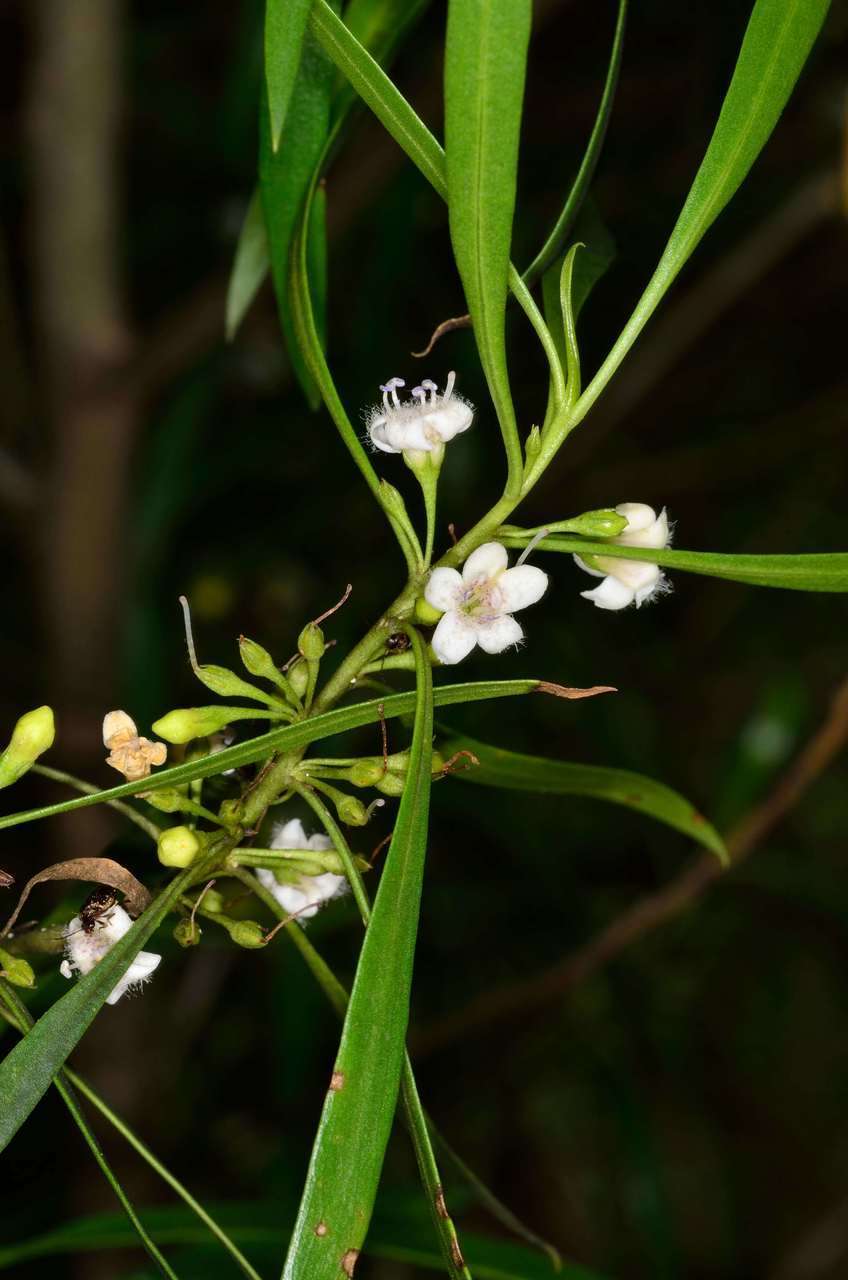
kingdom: Plantae
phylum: Tracheophyta
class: Magnoliopsida
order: Lamiales
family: Scrophulariaceae
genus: Myoporum
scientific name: Myoporum montanum
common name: Waterbush
